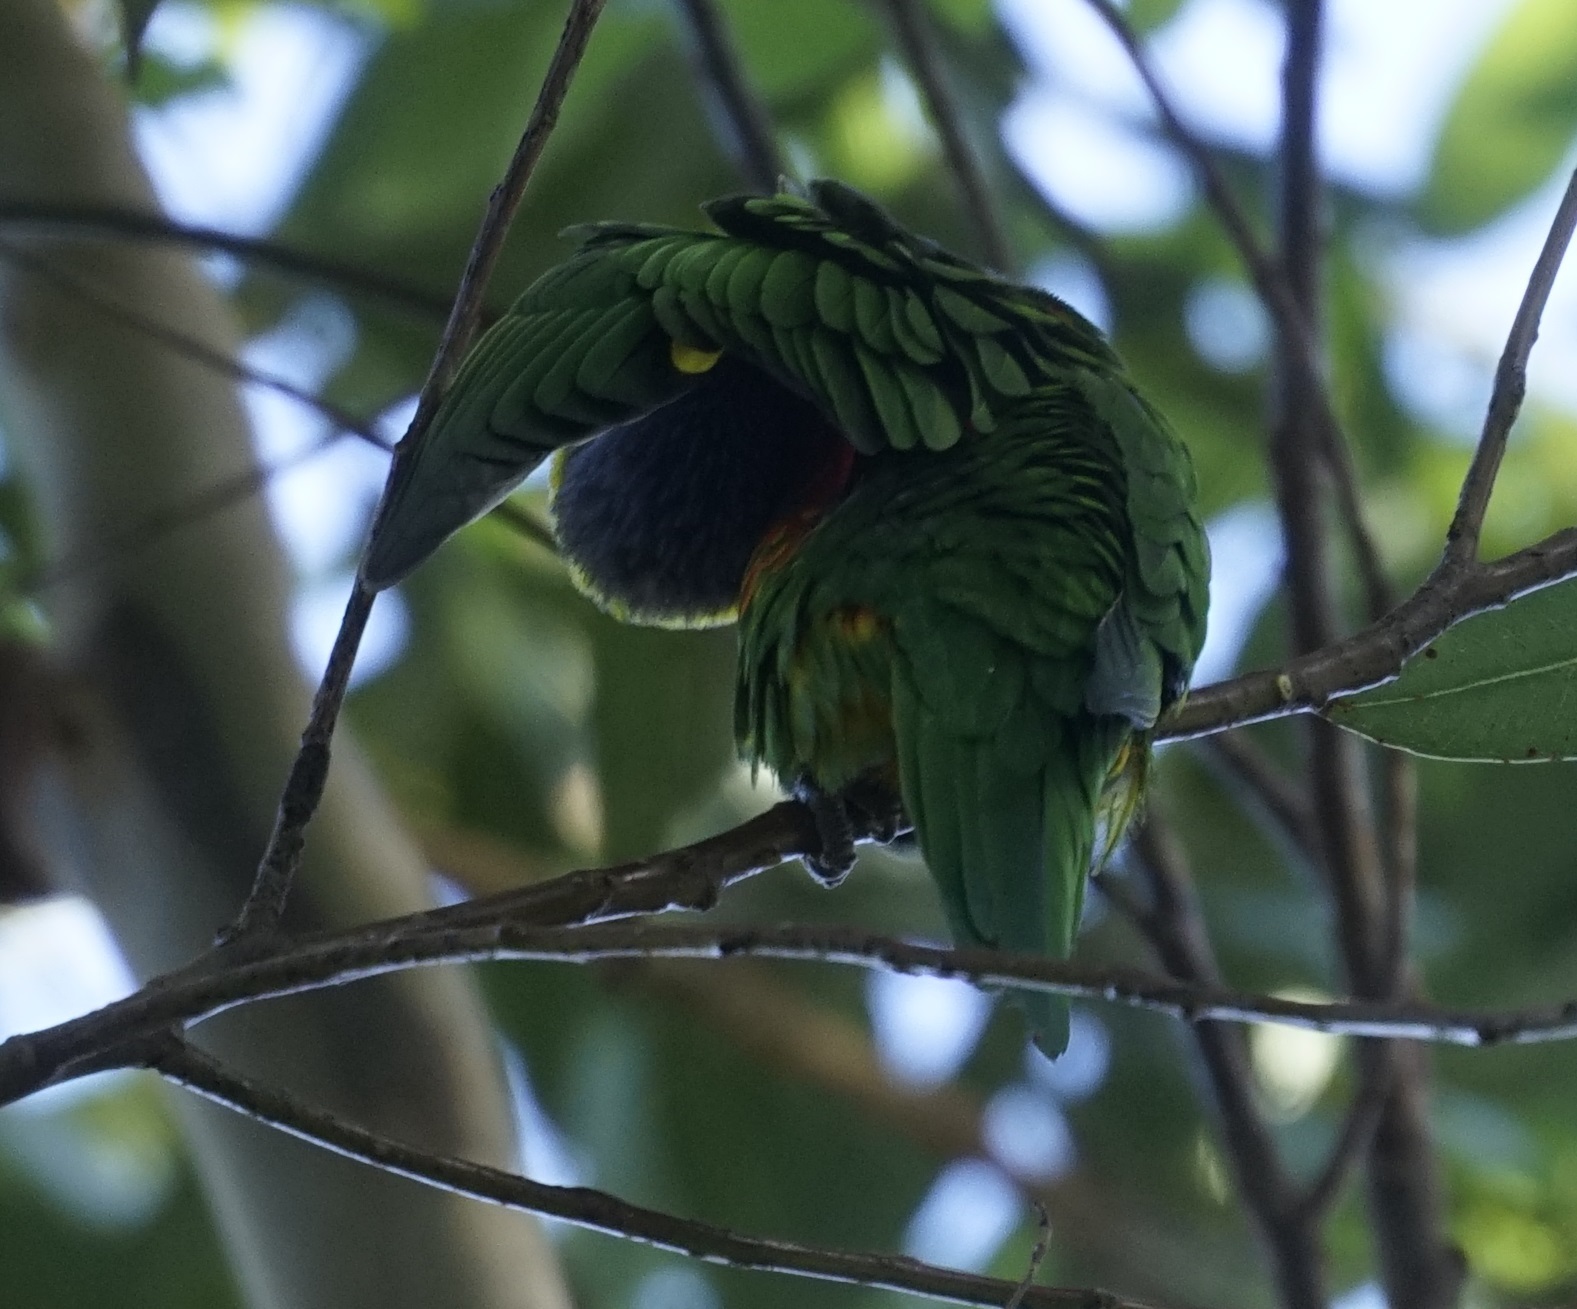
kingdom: Animalia
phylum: Chordata
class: Aves
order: Psittaciformes
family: Psittacidae
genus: Trichoglossus
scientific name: Trichoglossus haematodus
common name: Coconut lorikeet
